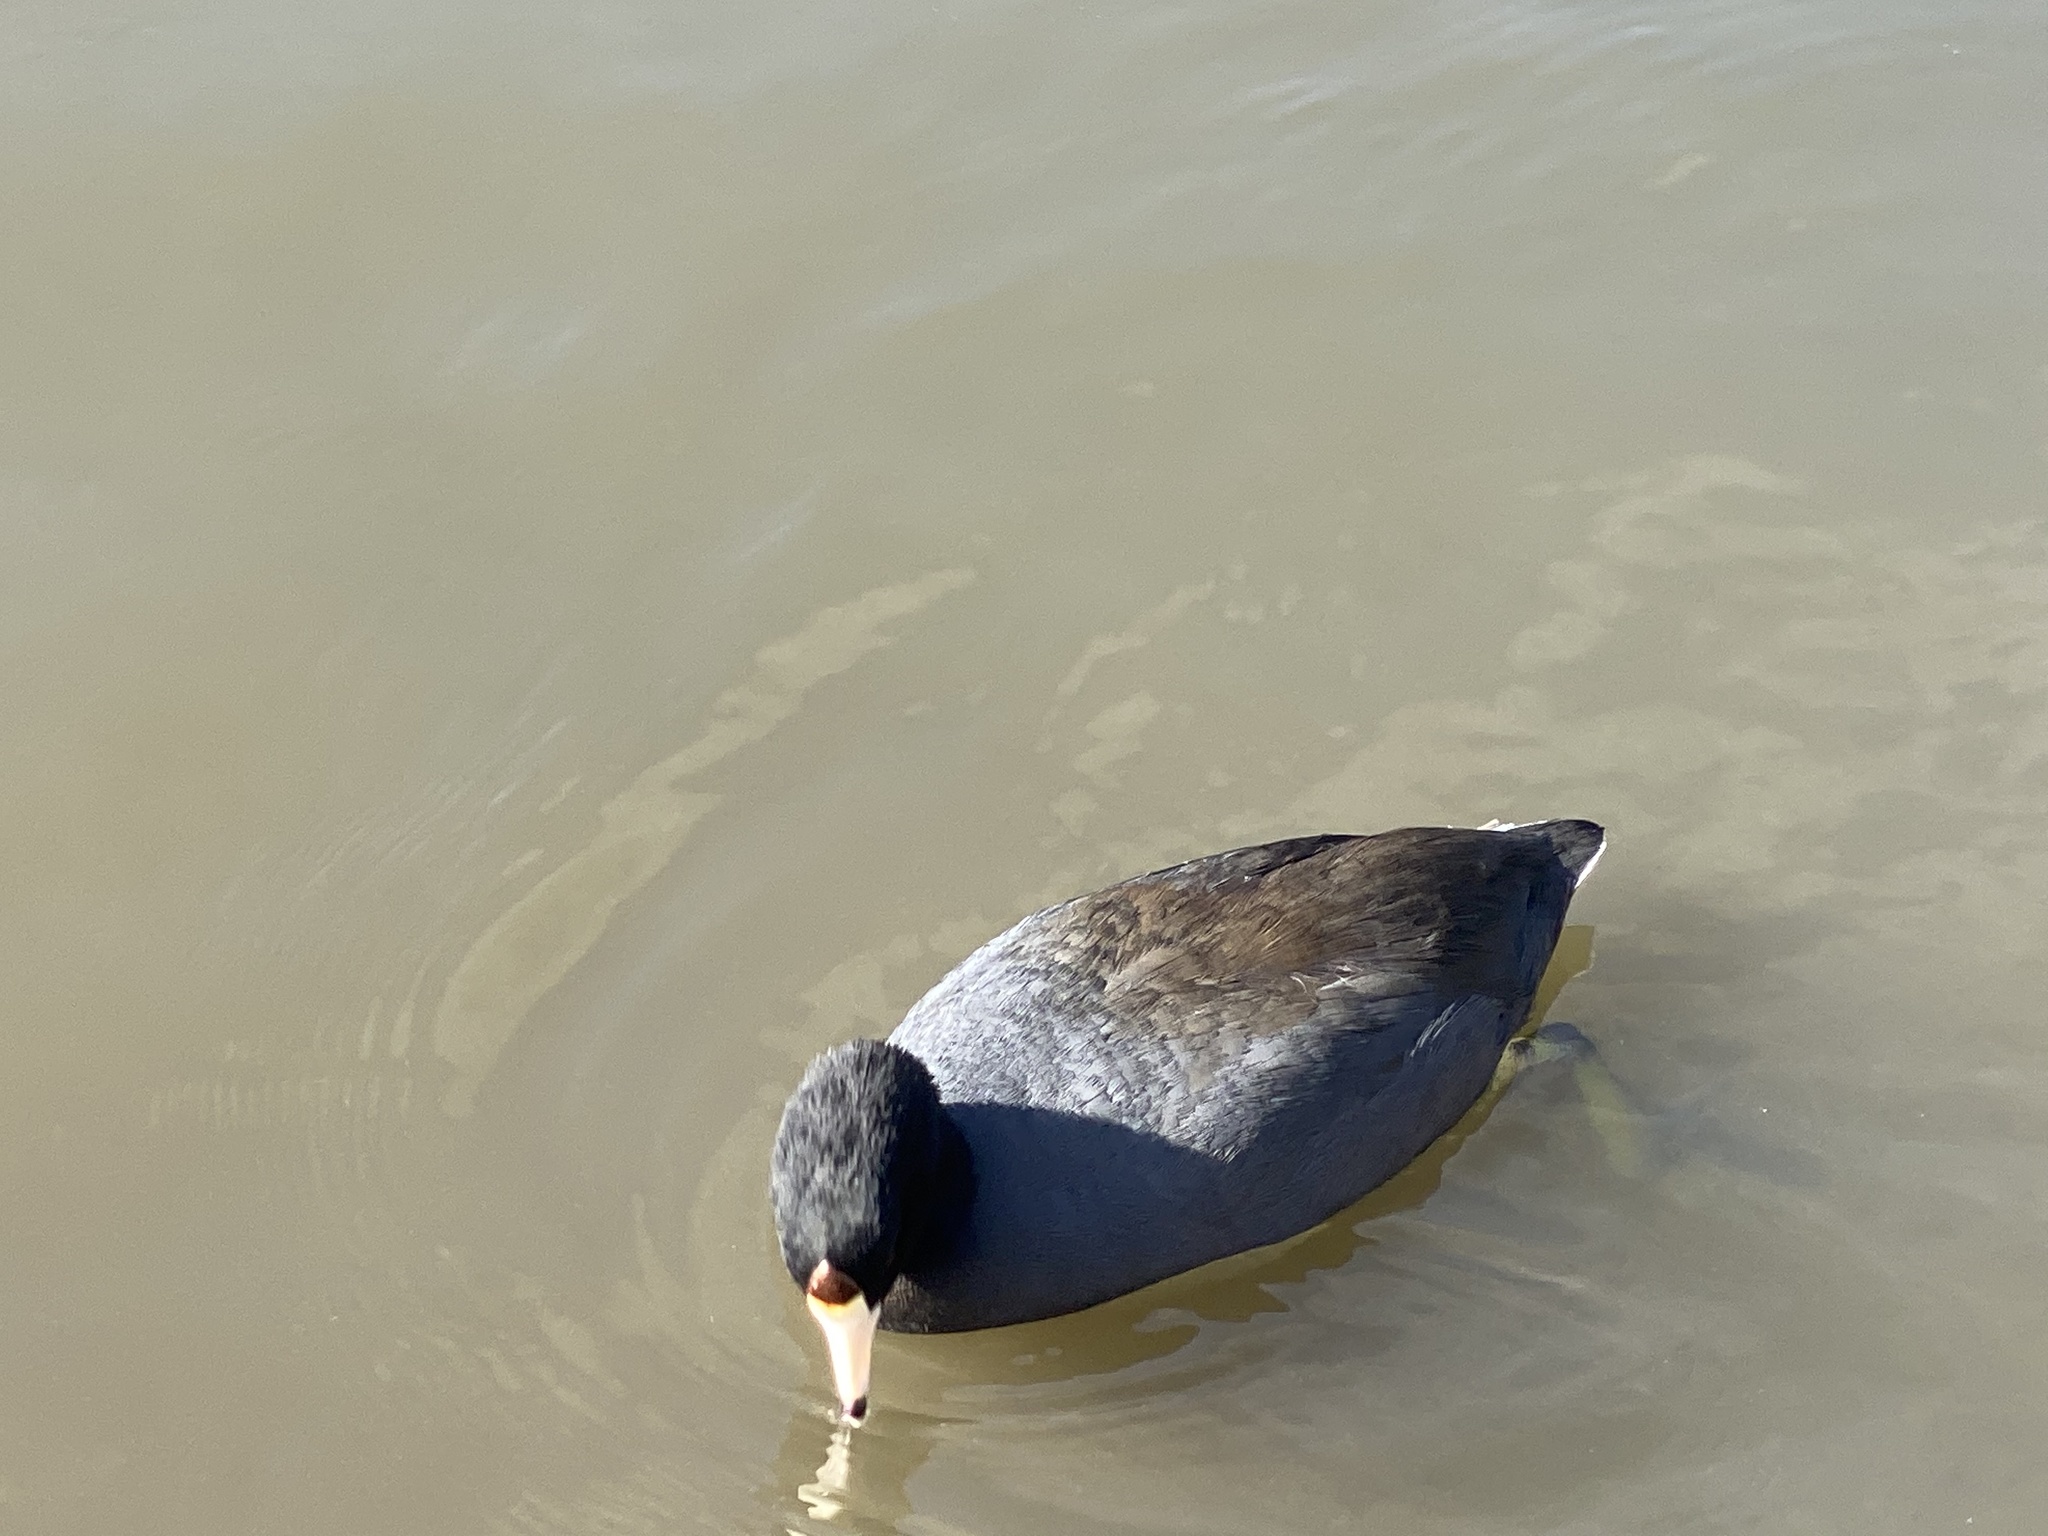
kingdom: Animalia
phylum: Chordata
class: Aves
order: Gruiformes
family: Rallidae
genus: Fulica
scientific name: Fulica americana
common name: American coot
